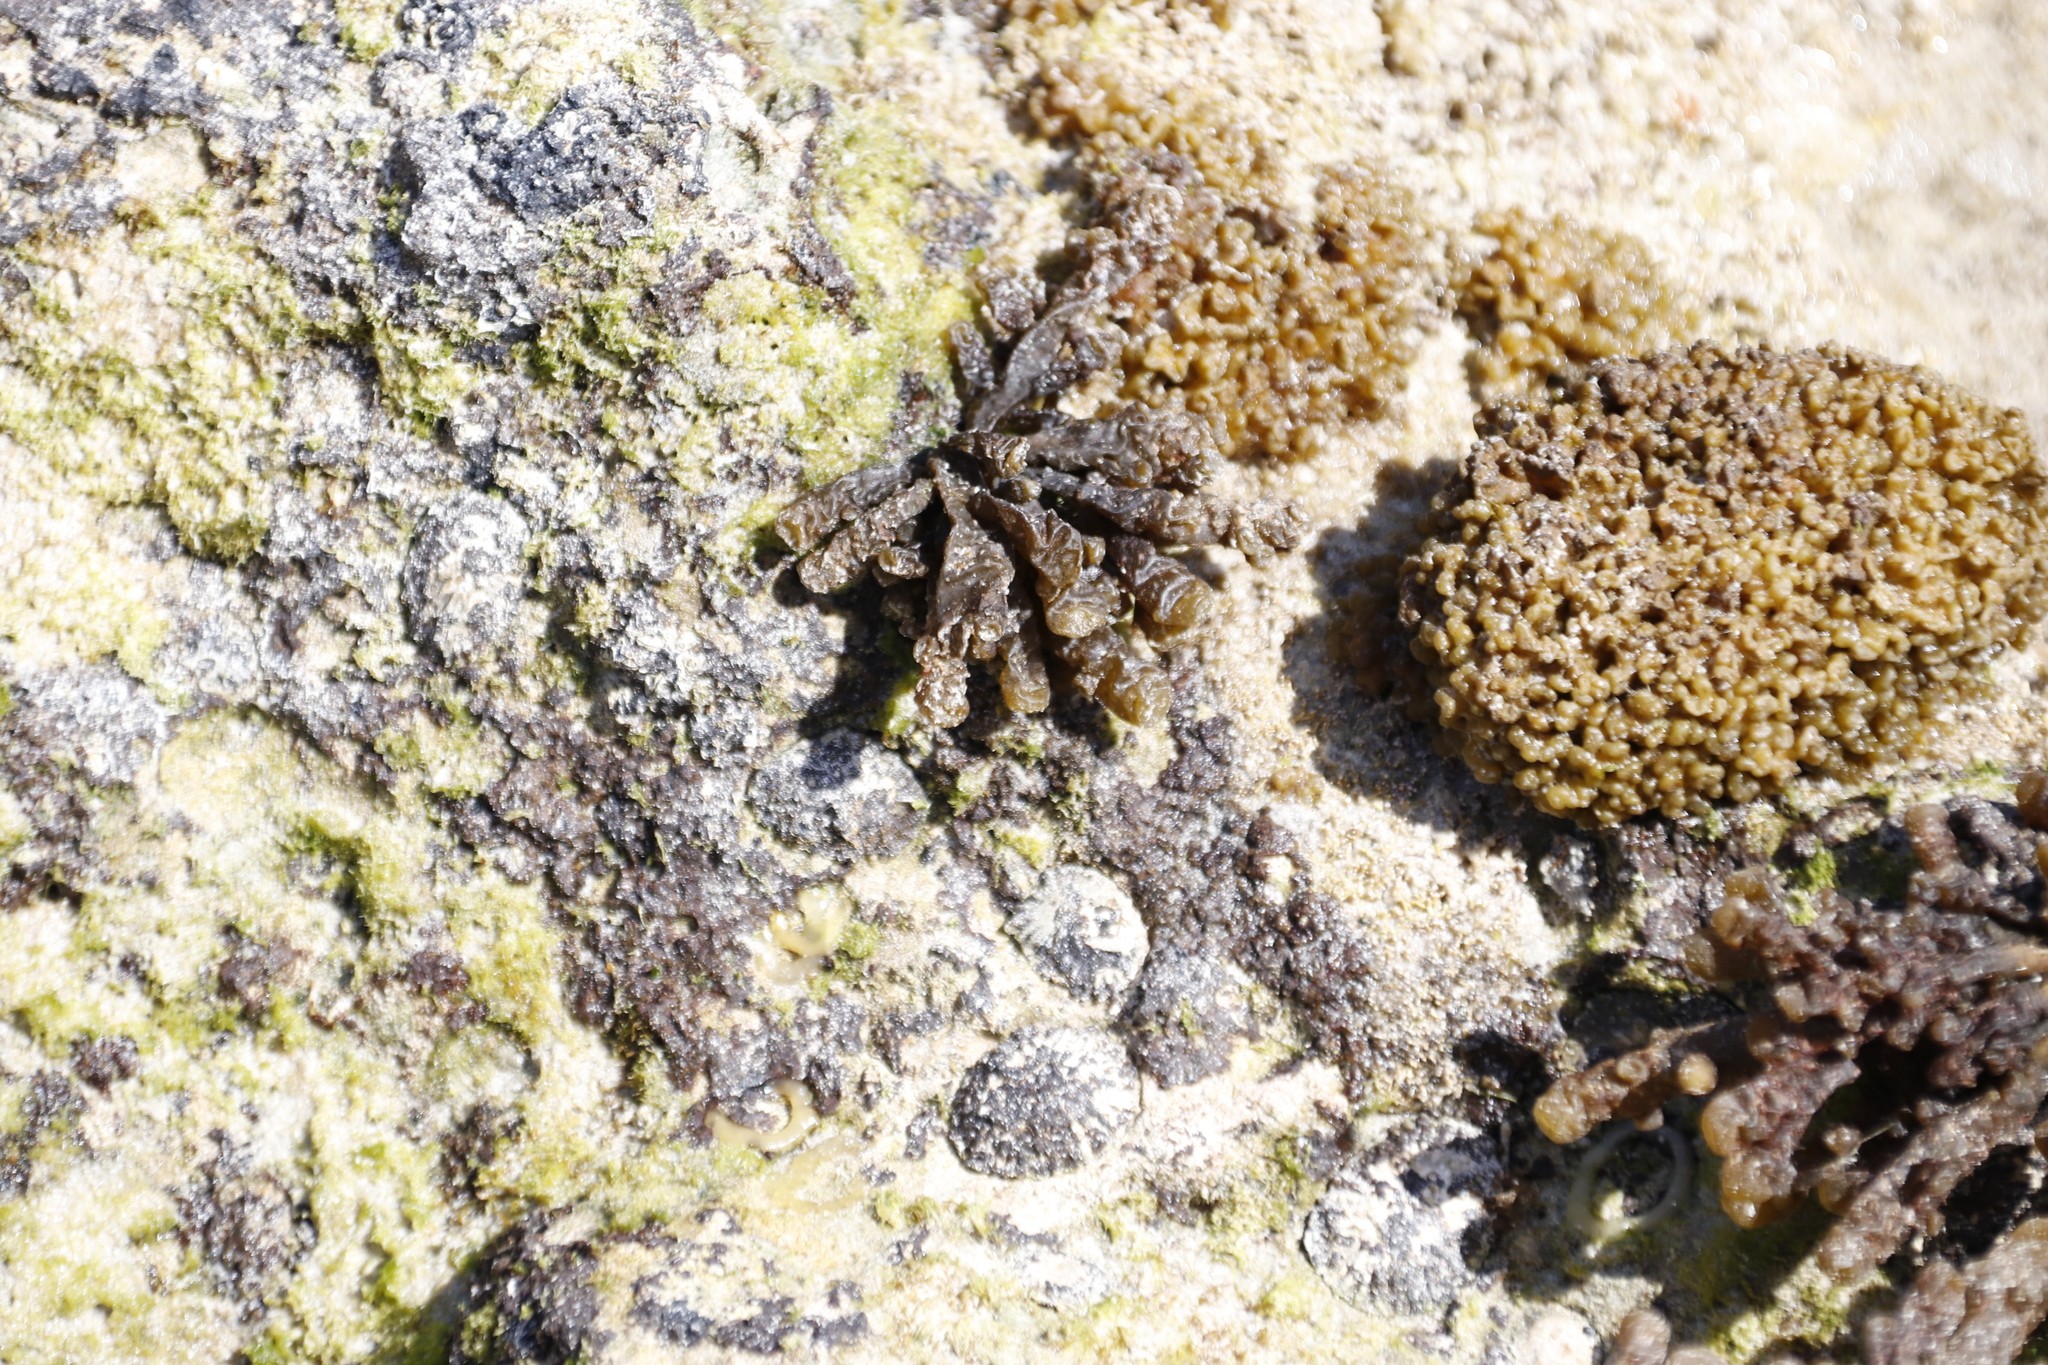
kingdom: Chromista
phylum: Ochrophyta
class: Phaeophyceae
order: Scytosiphonales
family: Scytosiphonaceae
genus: Iyengaria
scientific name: Iyengaria
